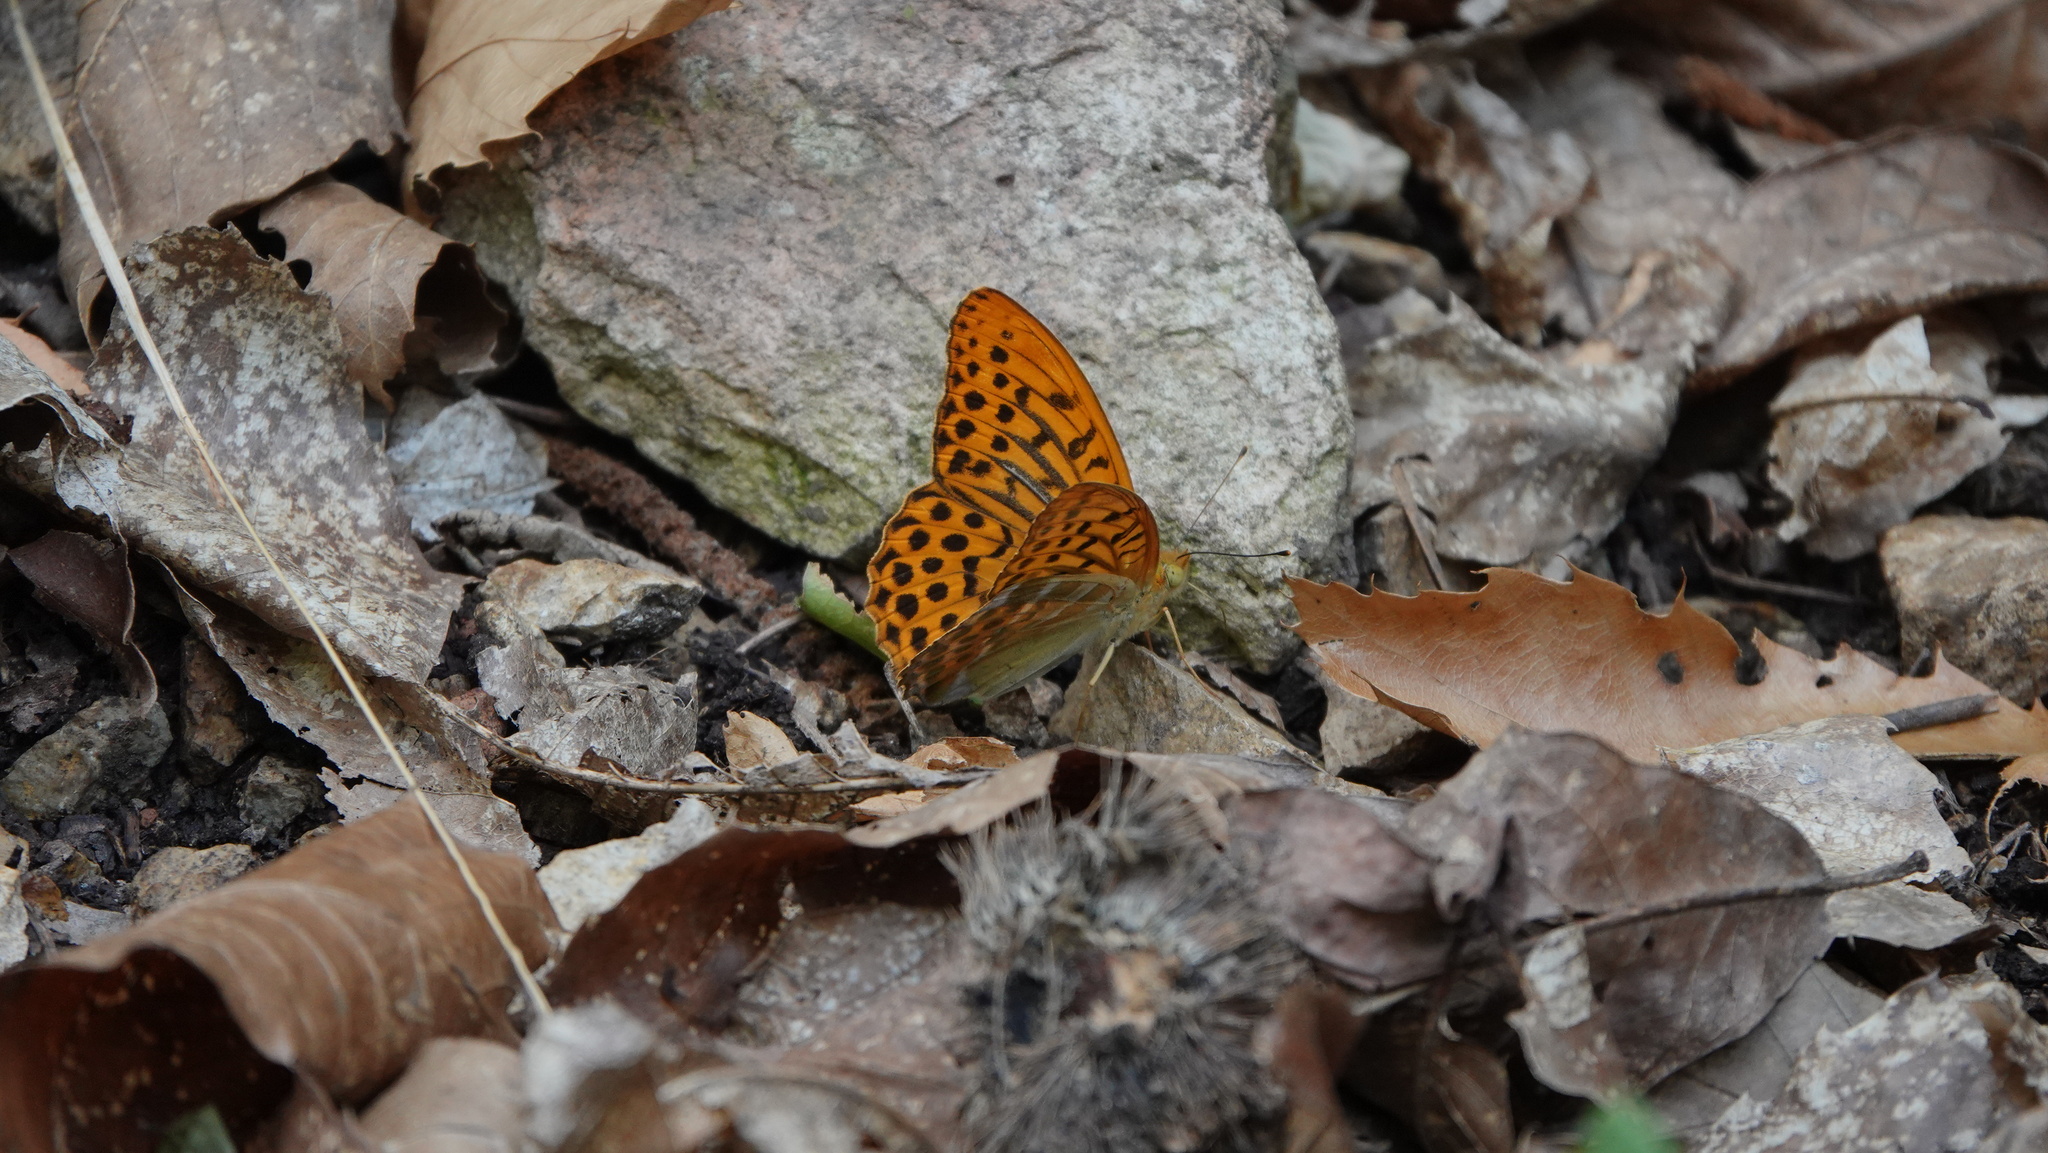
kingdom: Animalia
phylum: Arthropoda
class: Insecta
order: Lepidoptera
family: Nymphalidae
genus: Argynnis
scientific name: Argynnis paphia
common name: Silver-washed fritillary
